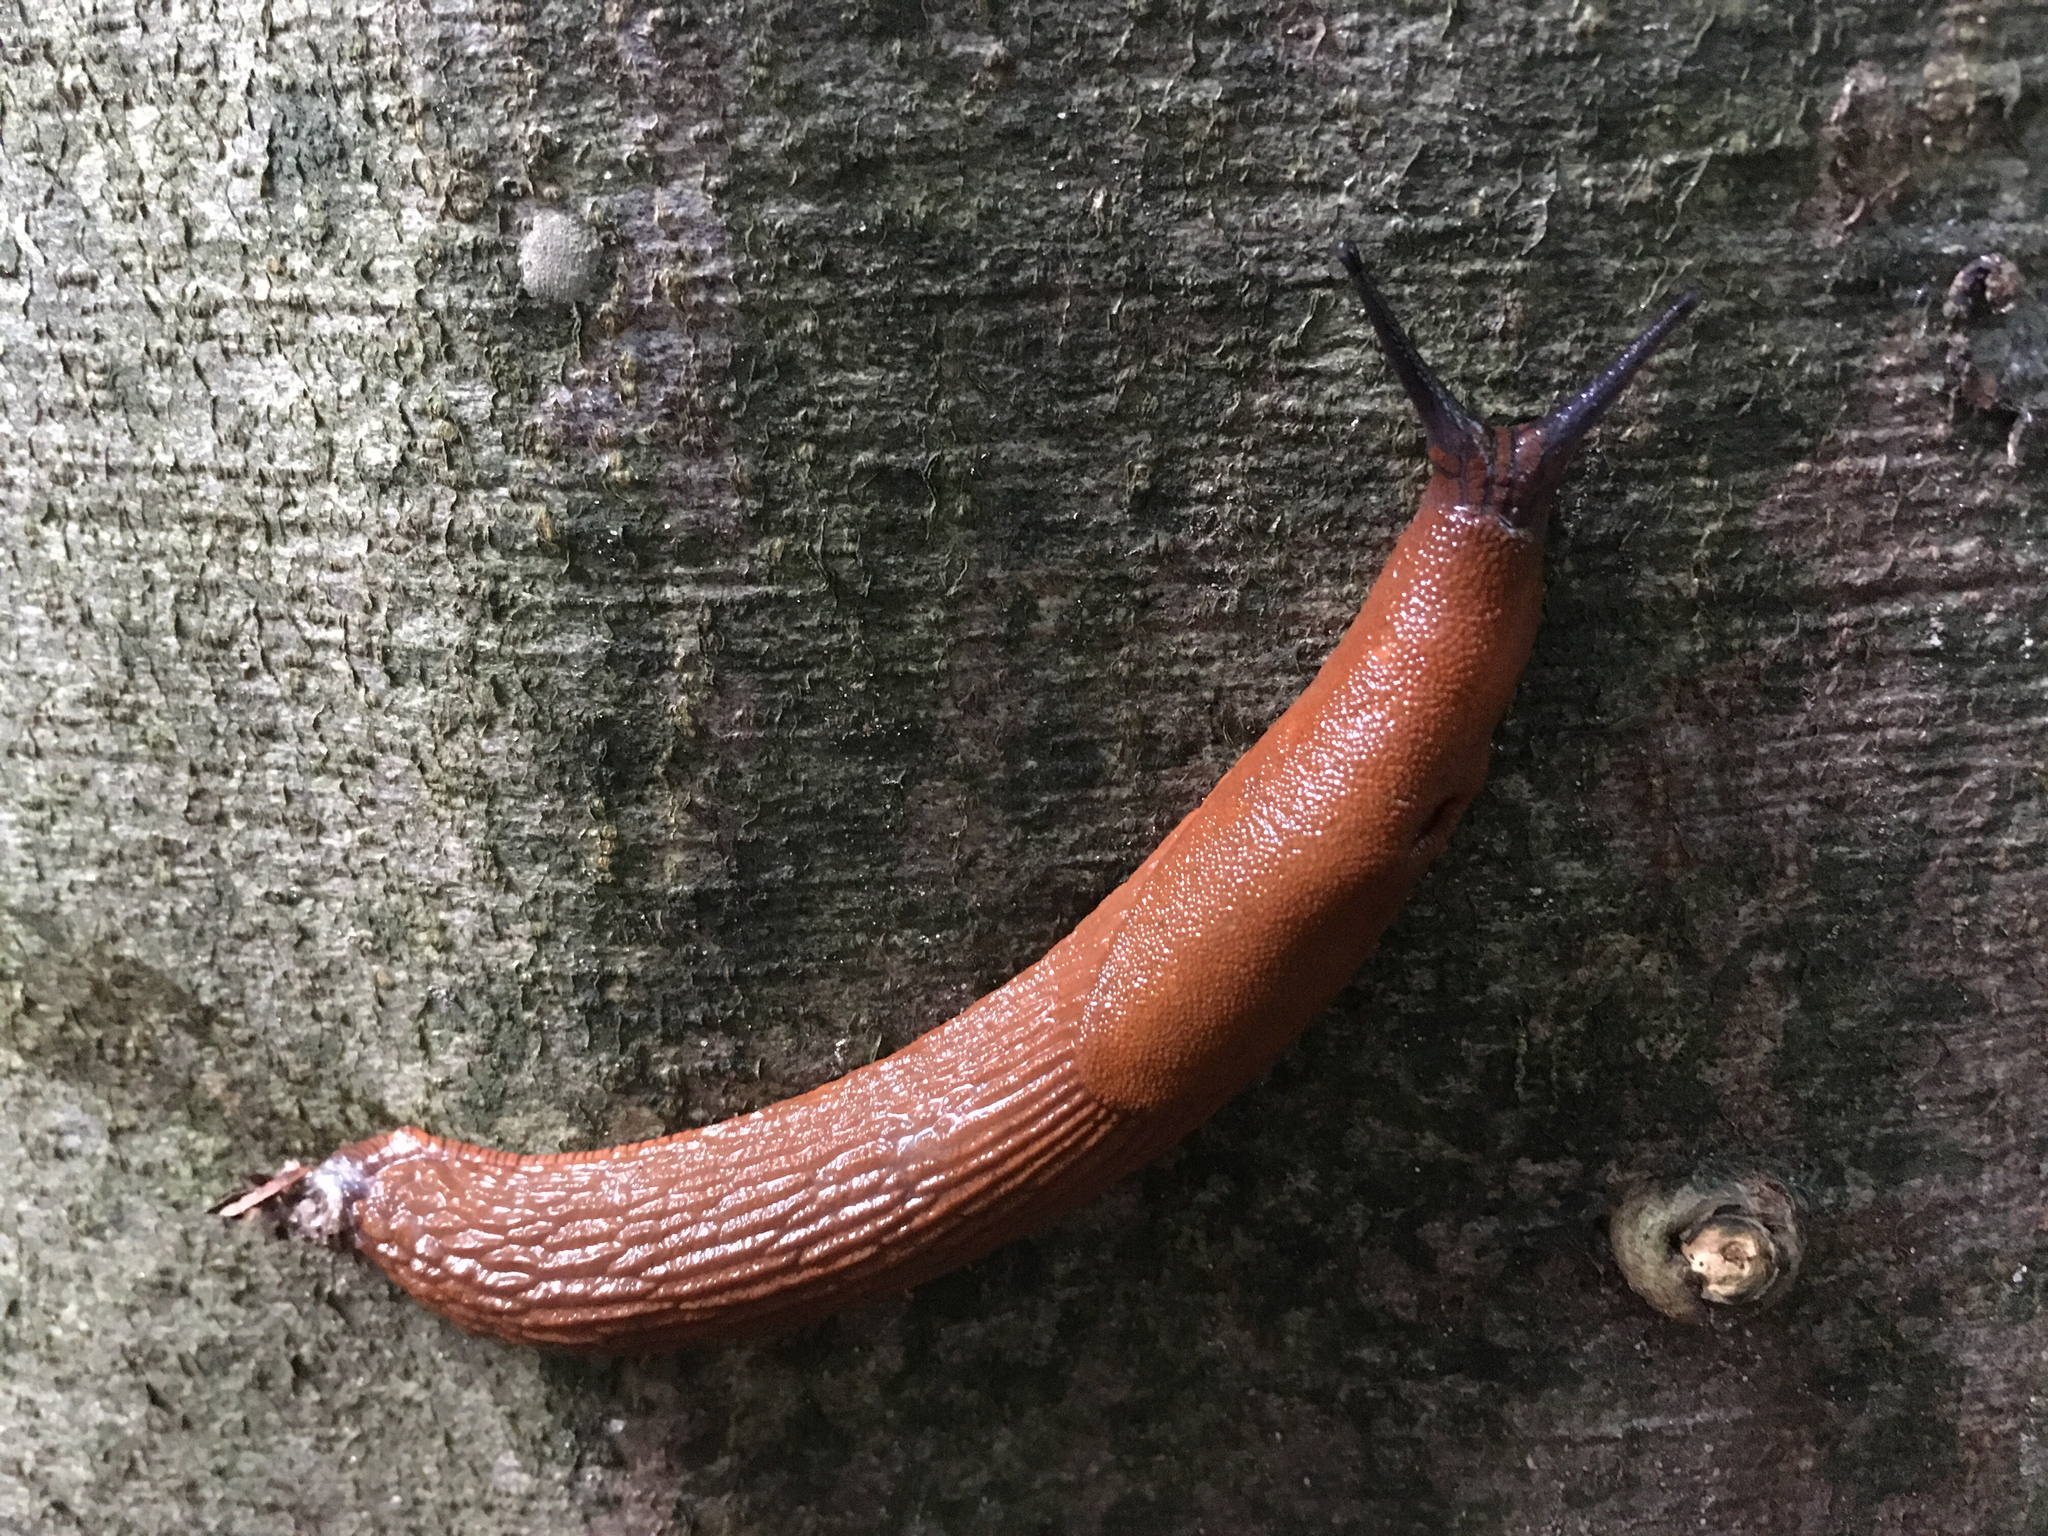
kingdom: Animalia
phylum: Mollusca
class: Gastropoda
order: Stylommatophora
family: Arionidae
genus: Arion
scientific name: Arion rufus
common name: Chocolate arion
